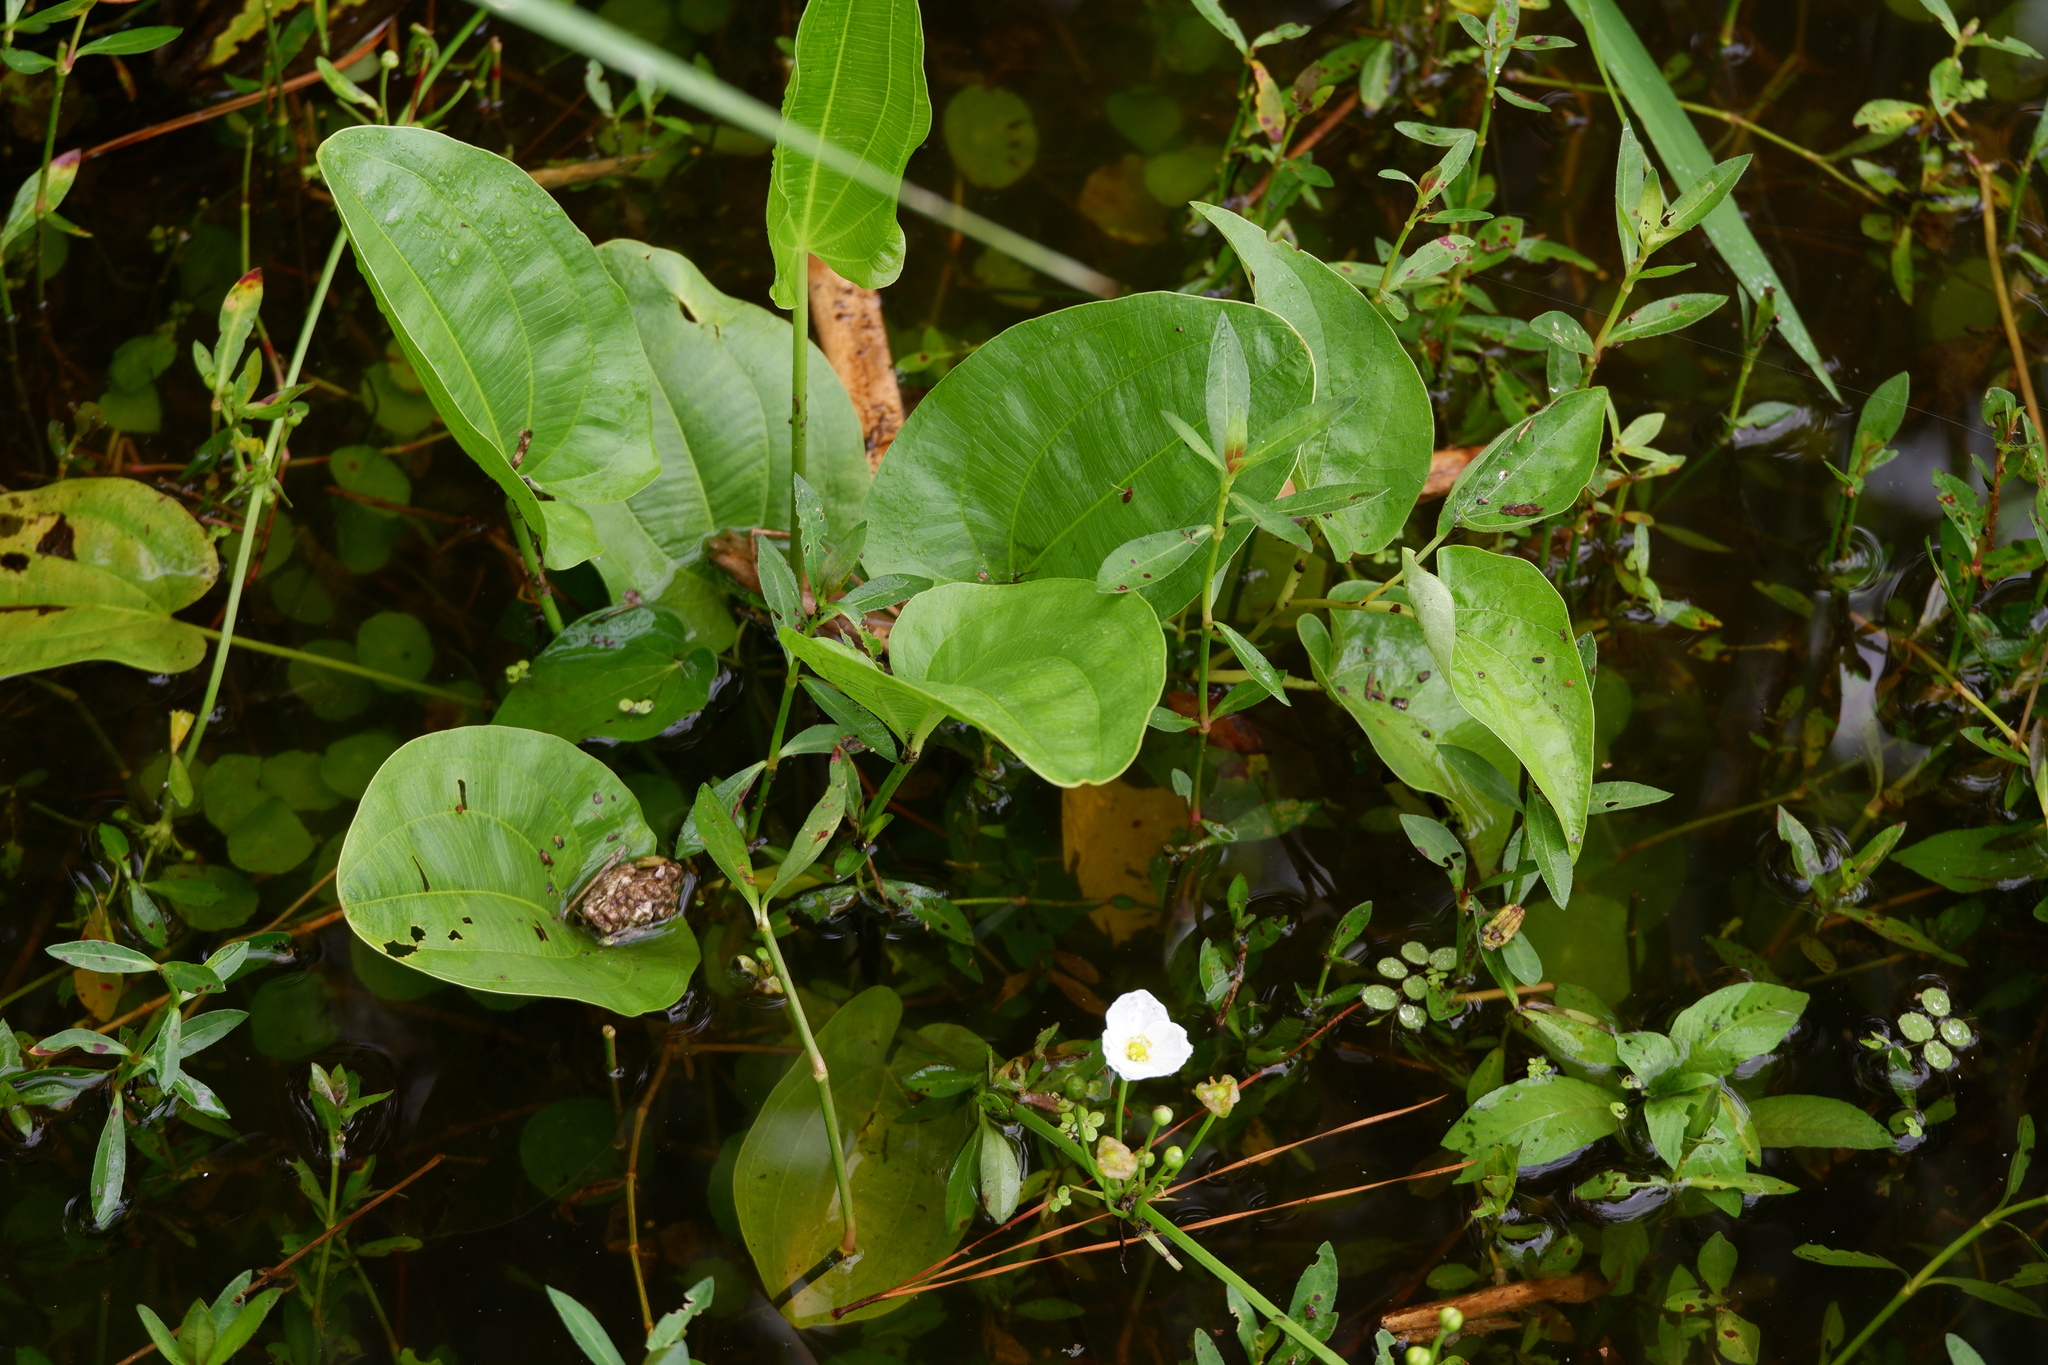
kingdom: Plantae
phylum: Tracheophyta
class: Liliopsida
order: Alismatales
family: Alismataceae
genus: Aquarius
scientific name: Aquarius cordifolius
